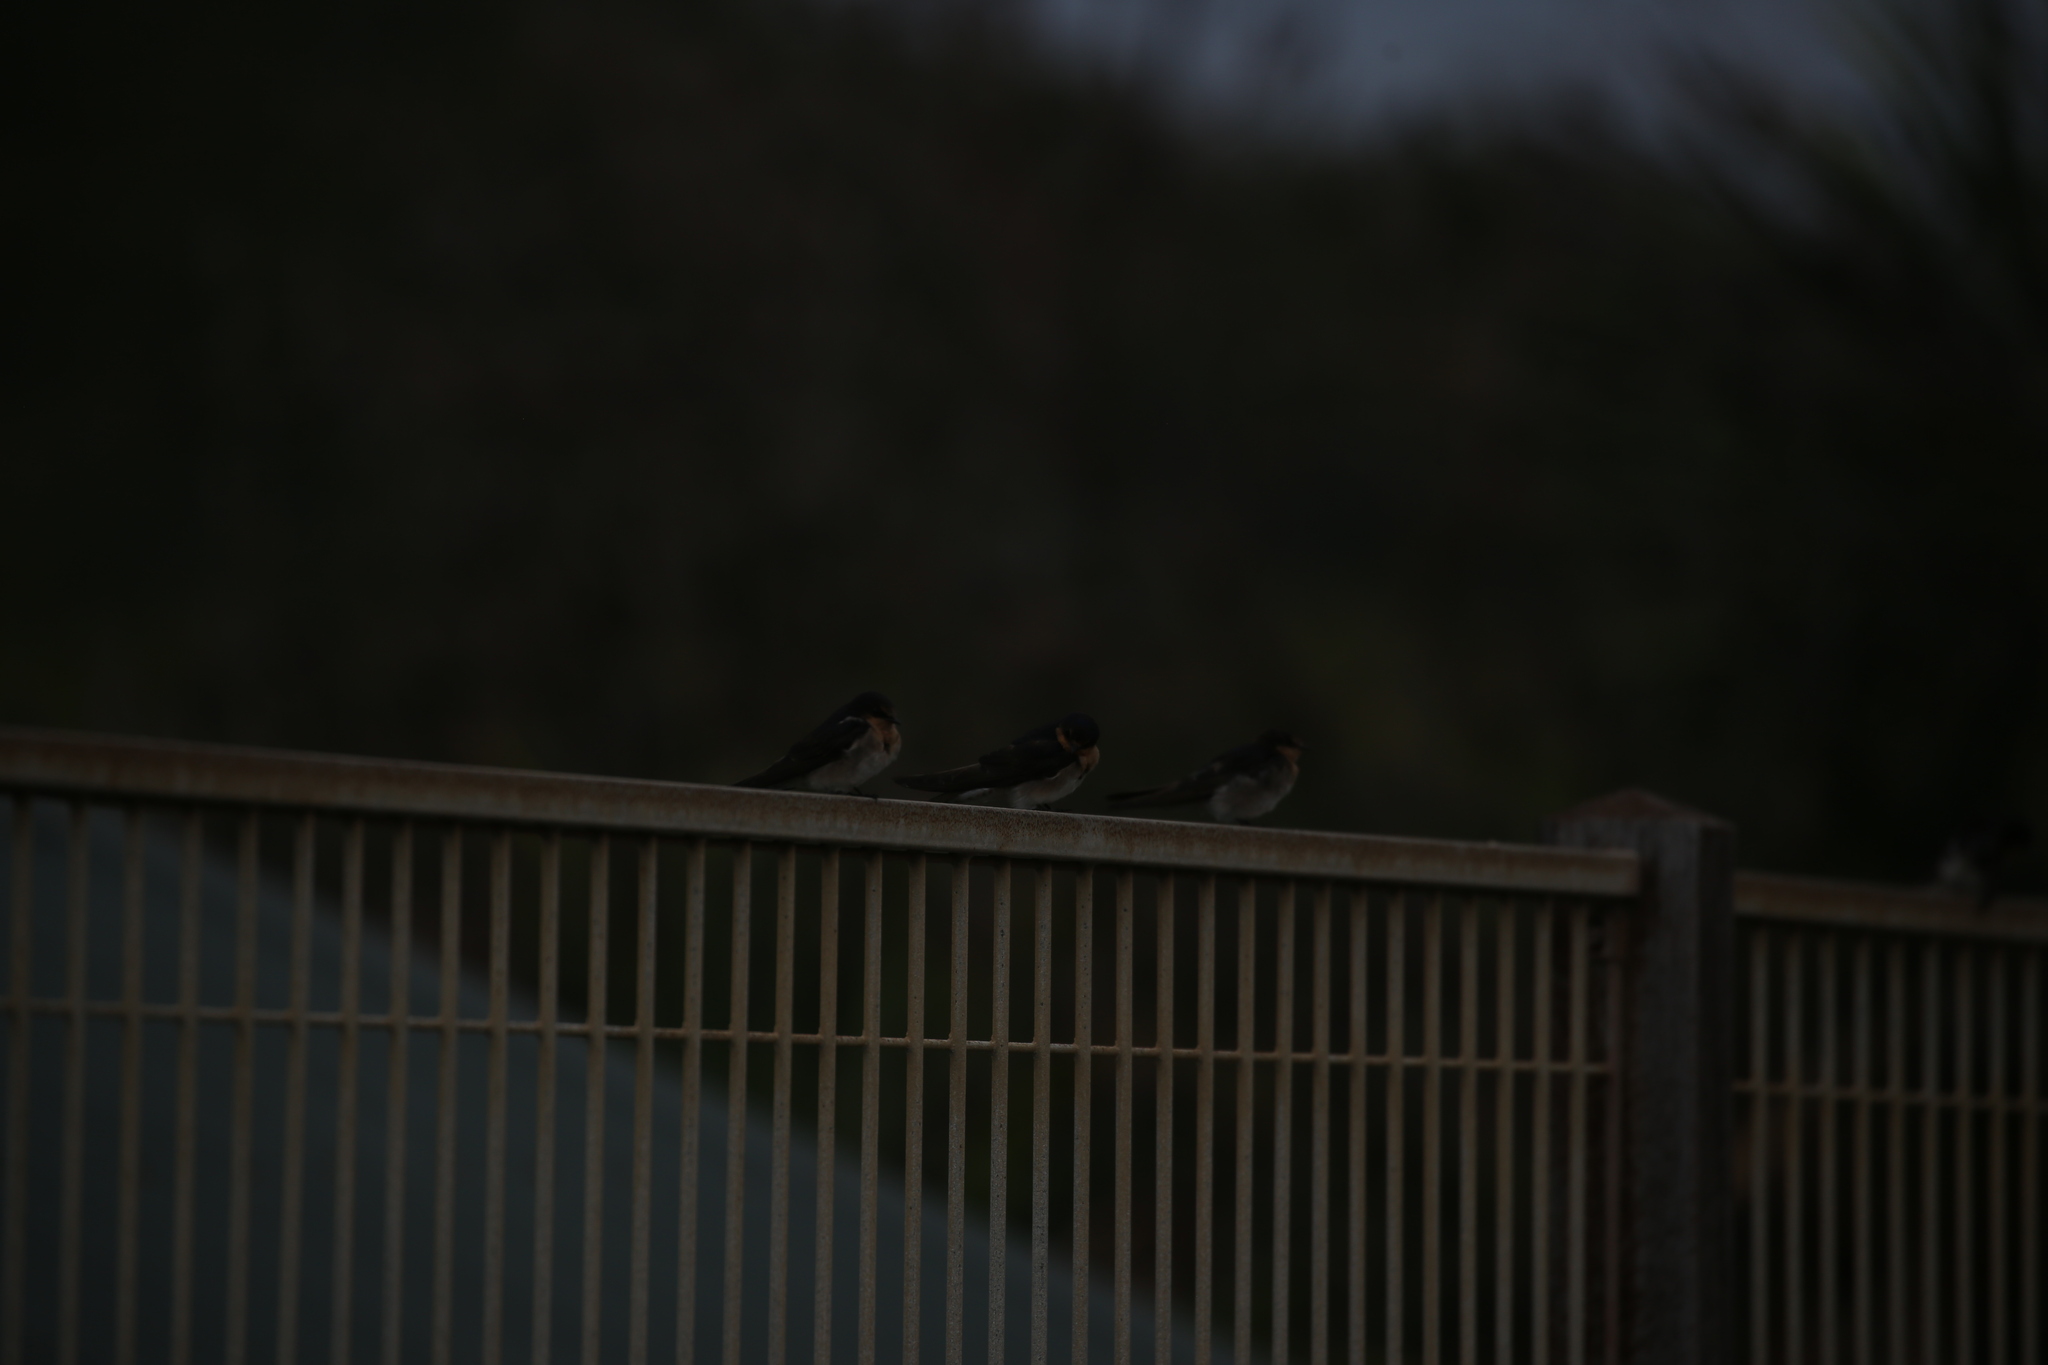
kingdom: Animalia
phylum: Chordata
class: Aves
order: Passeriformes
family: Hirundinidae
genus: Hirundo
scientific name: Hirundo neoxena
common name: Welcome swallow
